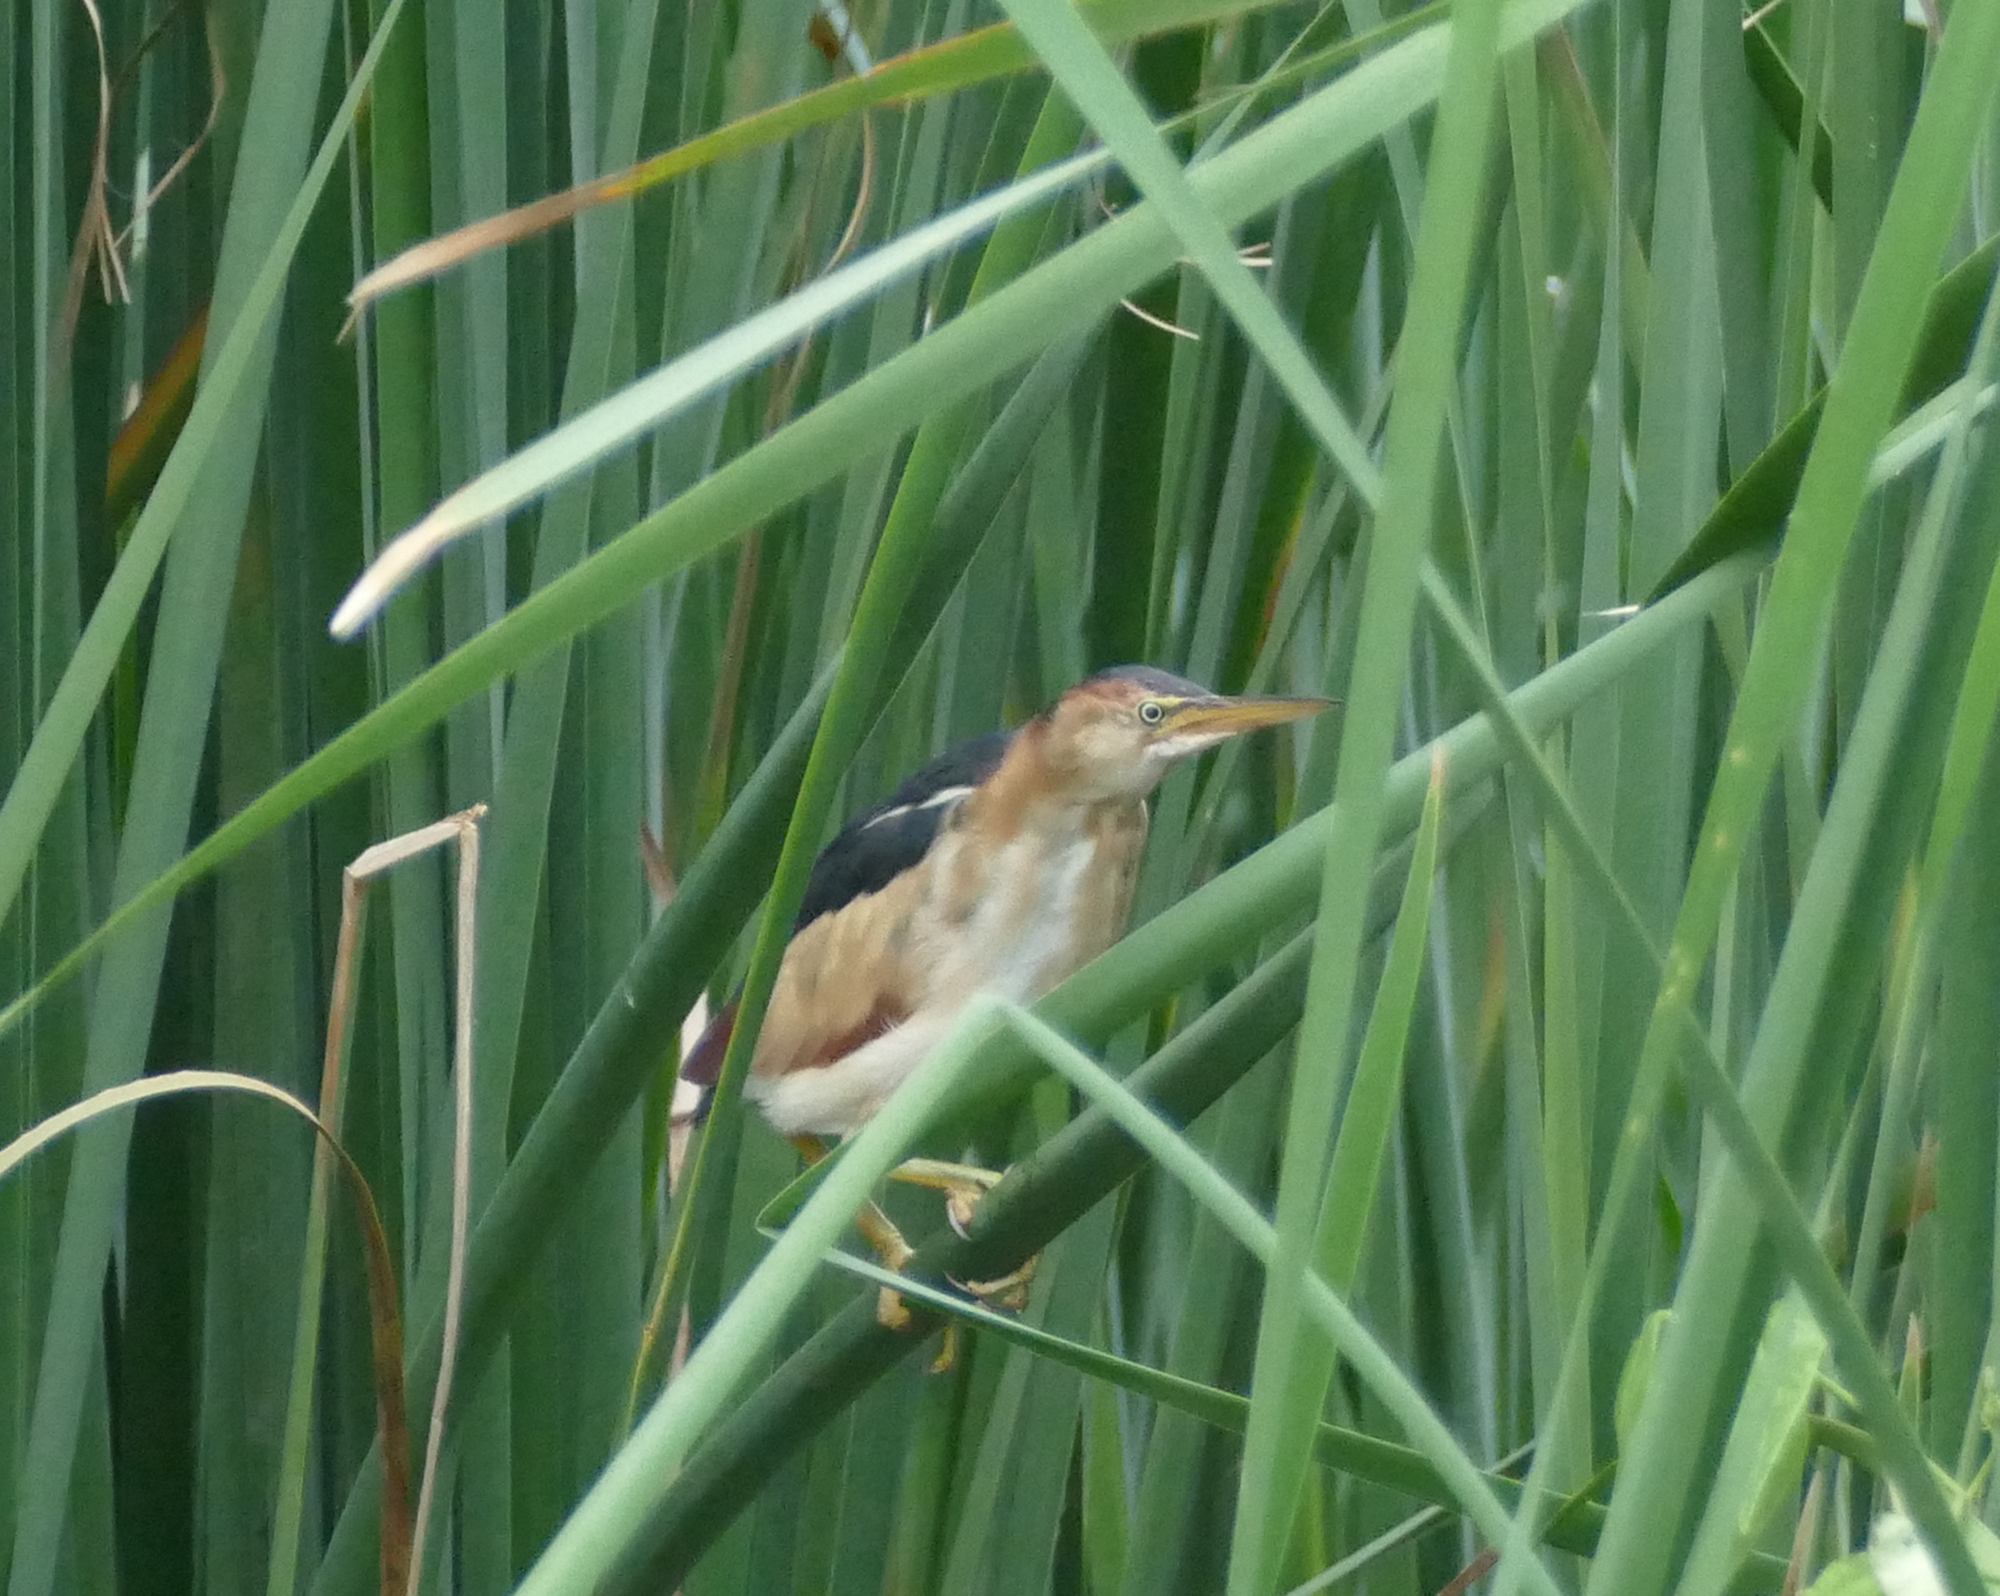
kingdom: Animalia
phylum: Chordata
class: Aves
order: Pelecaniformes
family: Ardeidae
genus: Ixobrychus
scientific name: Ixobrychus exilis
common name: Least bittern
